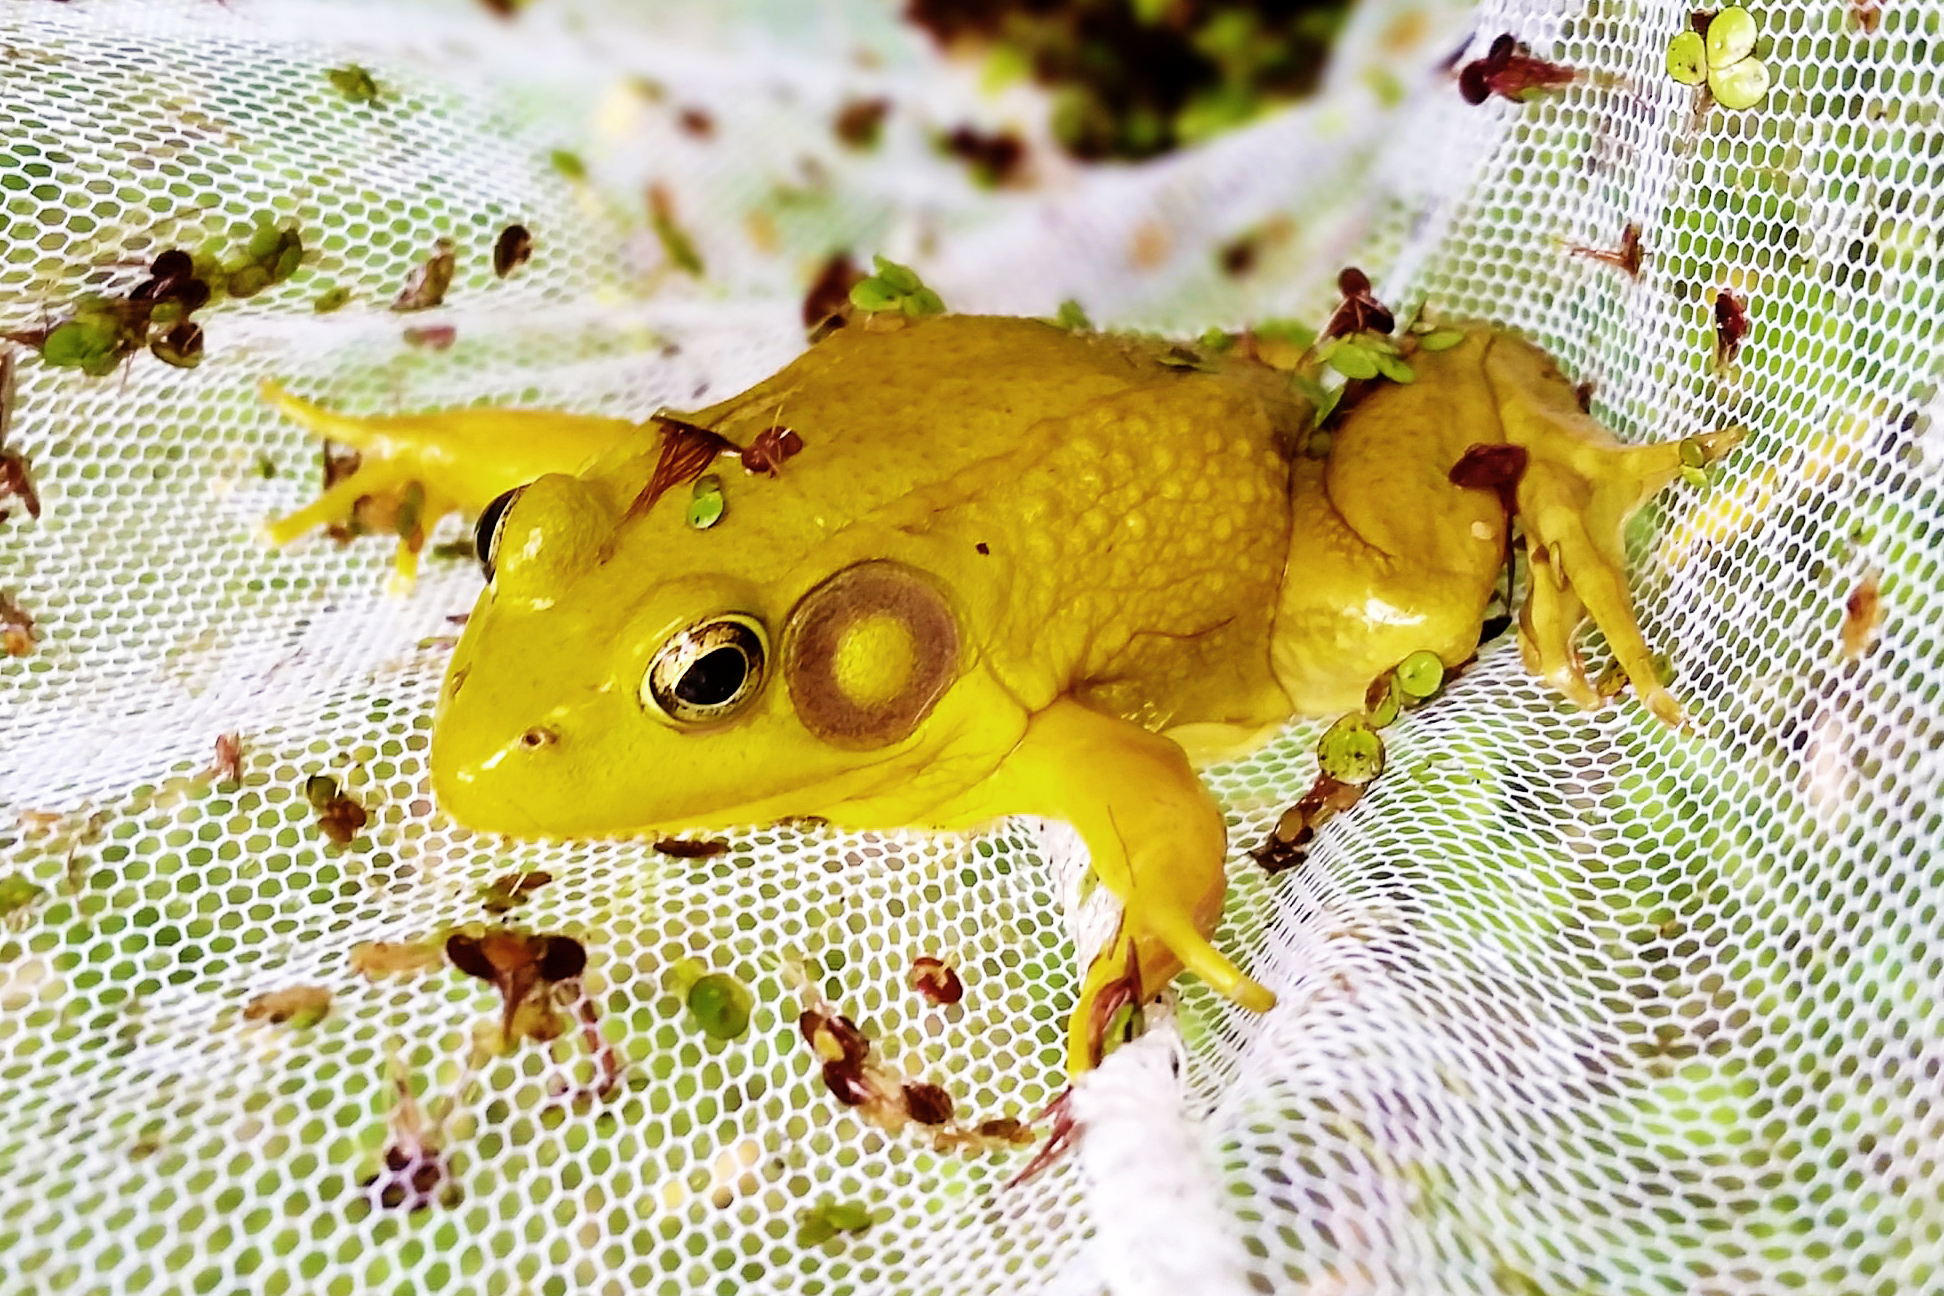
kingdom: Animalia
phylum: Chordata
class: Amphibia
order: Anura
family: Ranidae
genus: Lithobates
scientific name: Lithobates clamitans
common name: Green frog
